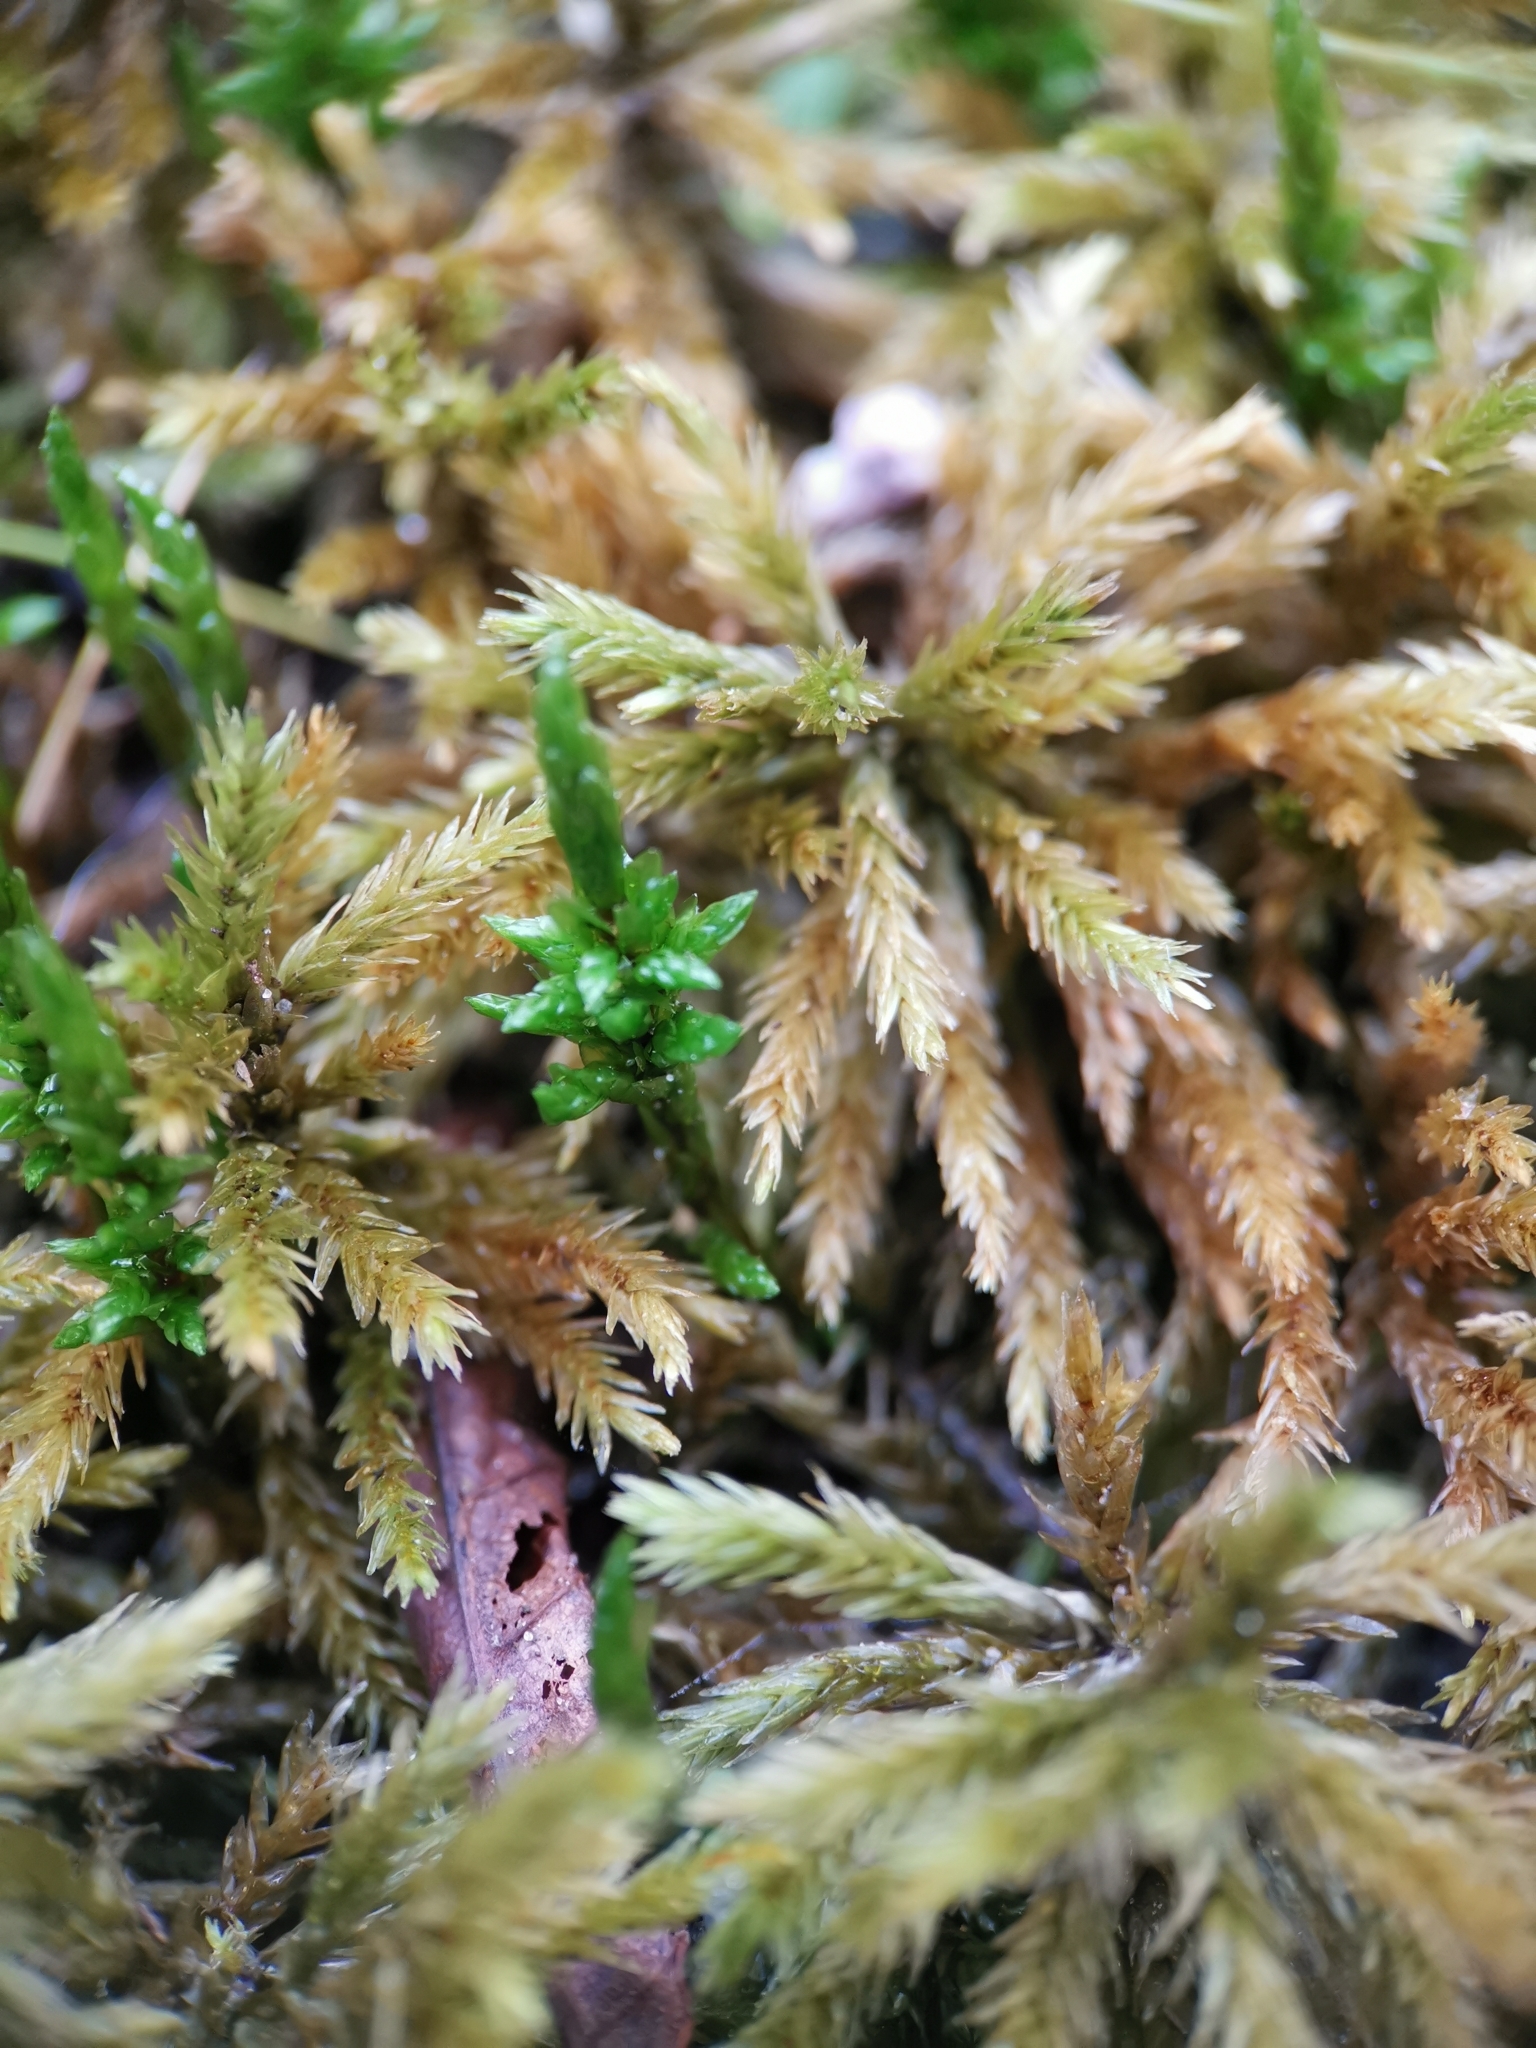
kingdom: Plantae
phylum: Bryophyta
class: Bryopsida
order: Hypnales
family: Climaciaceae
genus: Climacium
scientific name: Climacium dendroides
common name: Northern tree moss
